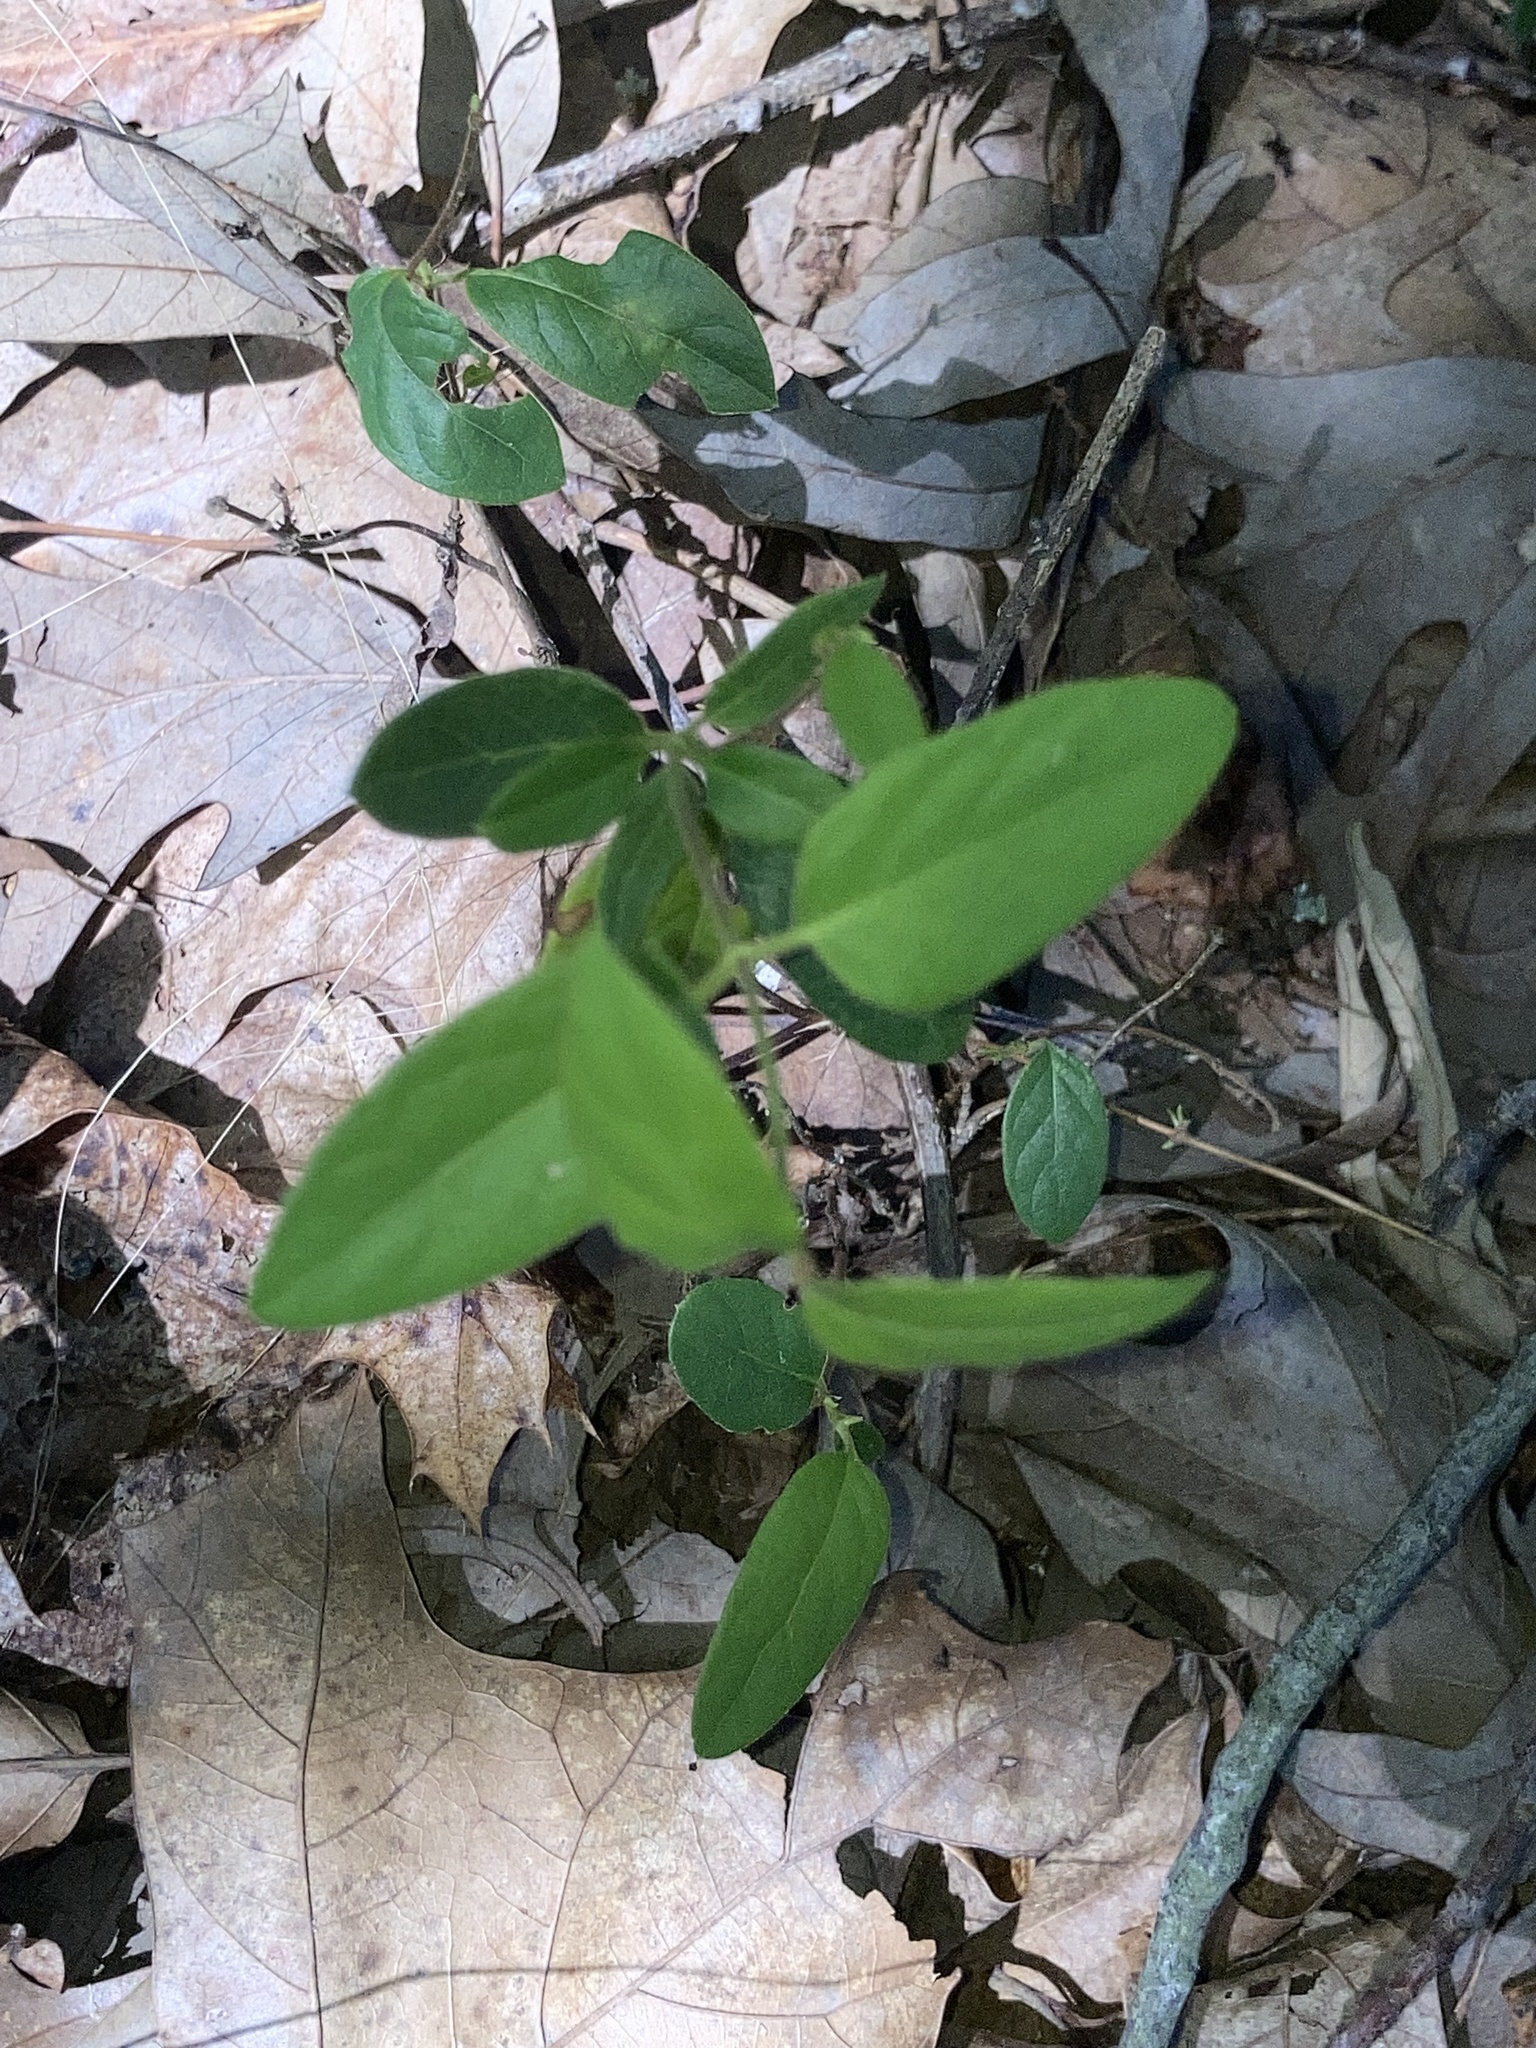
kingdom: Plantae
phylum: Tracheophyta
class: Magnoliopsida
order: Dipsacales
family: Caprifoliaceae
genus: Lonicera
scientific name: Lonicera japonica
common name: Japanese honeysuckle
